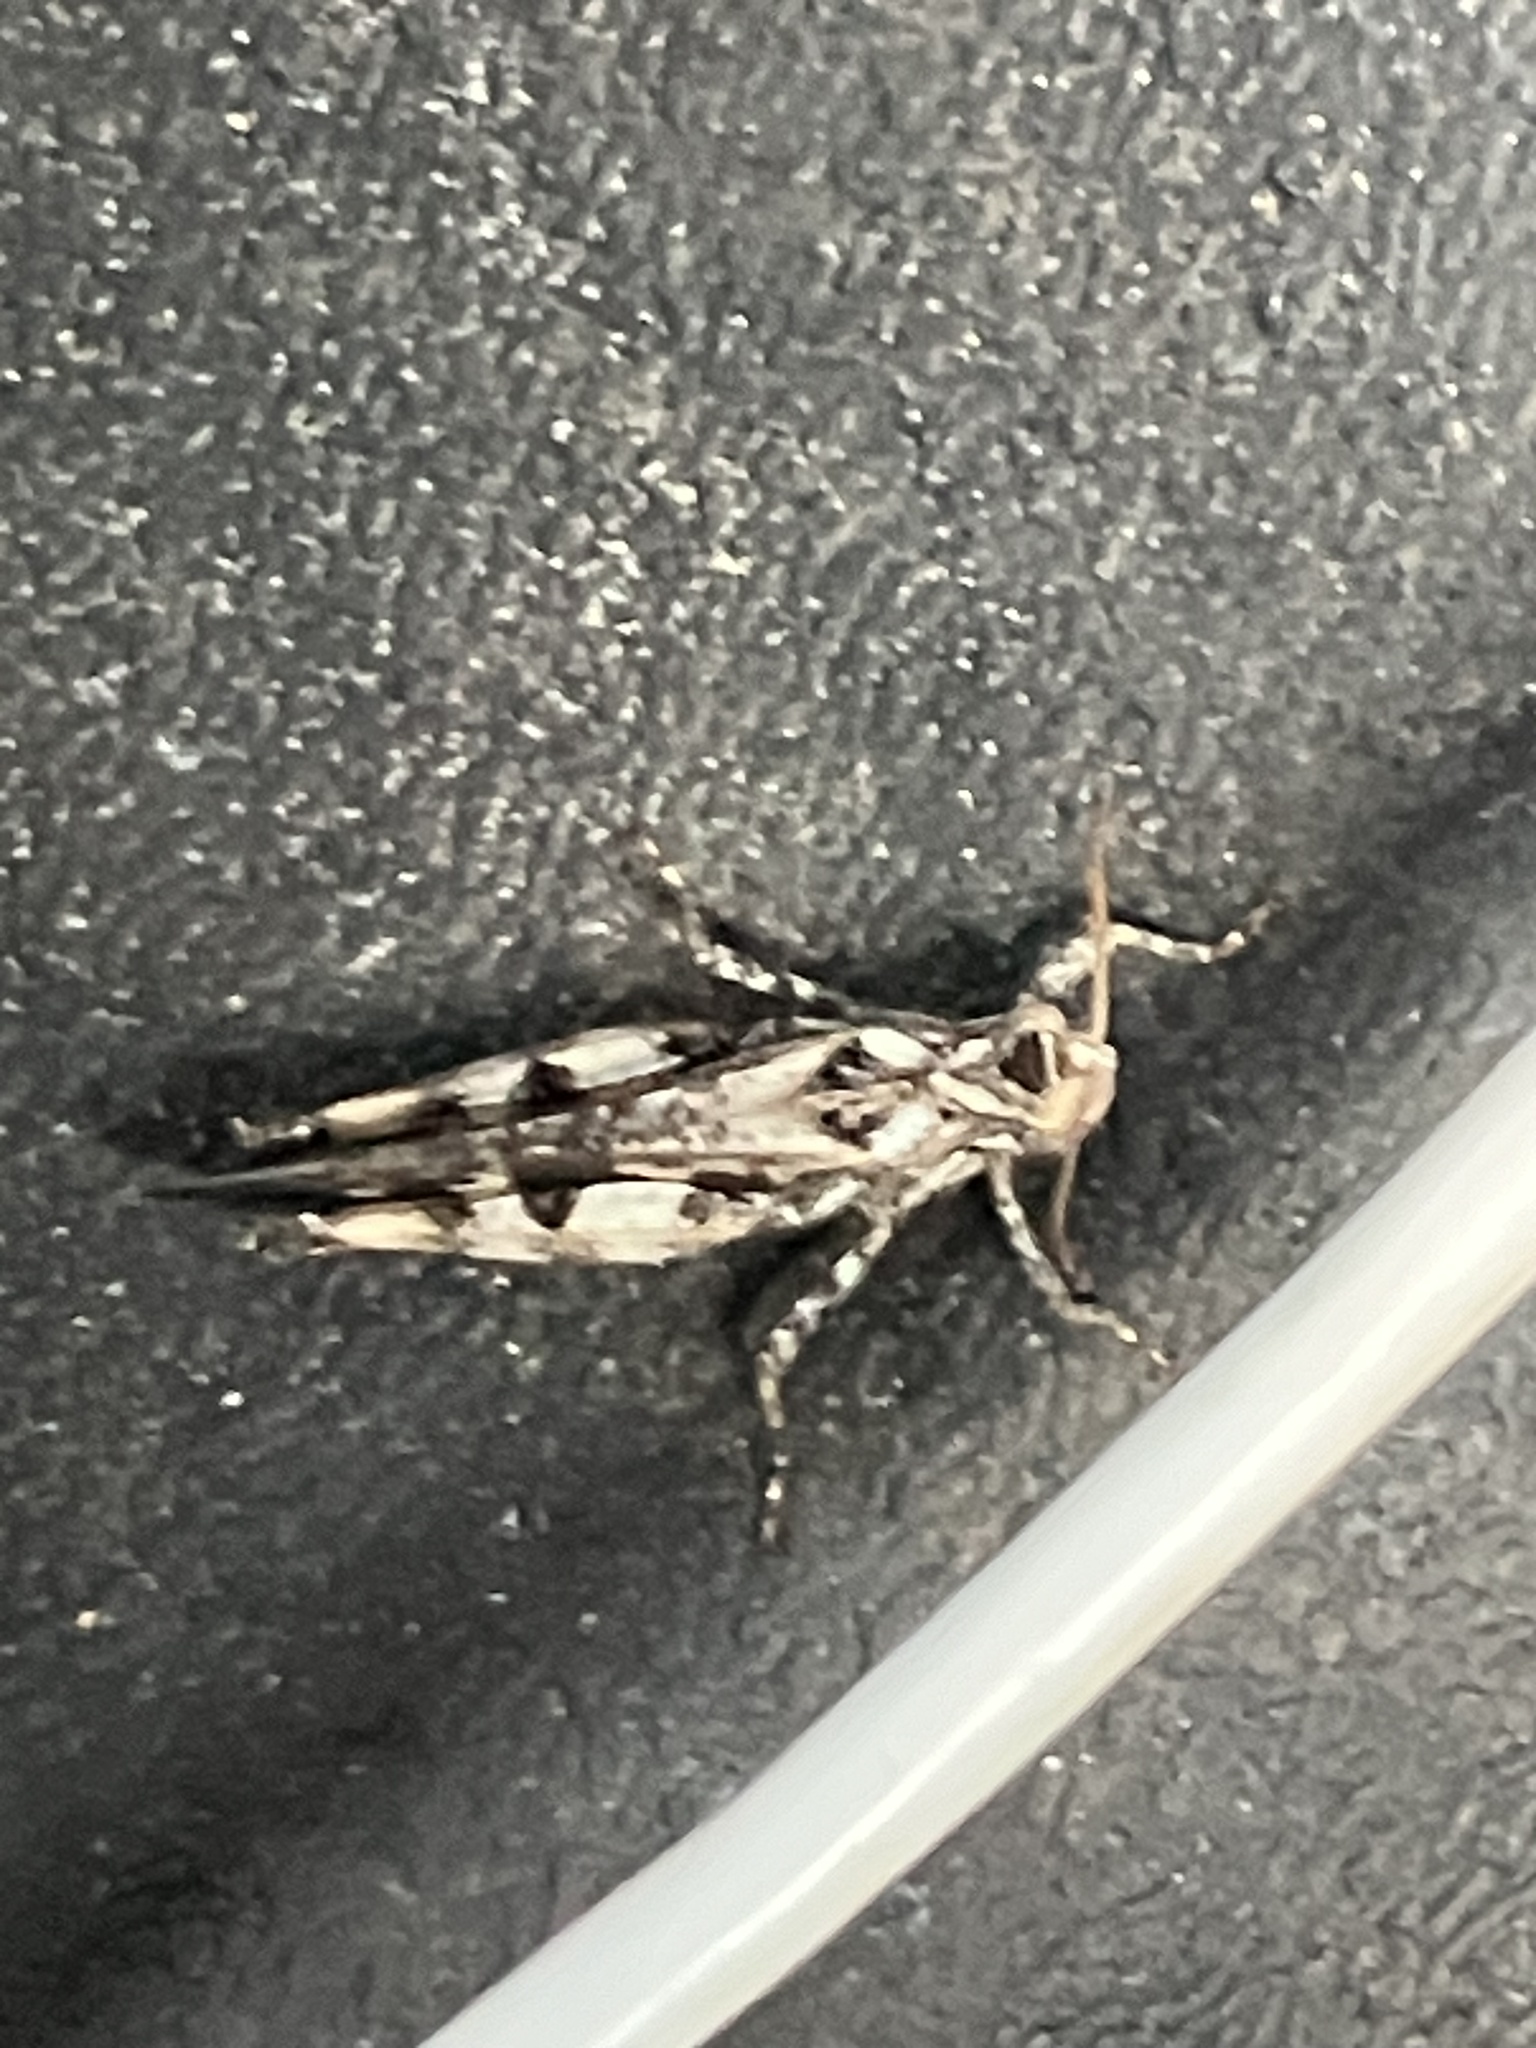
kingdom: Animalia
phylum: Arthropoda
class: Insecta
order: Orthoptera
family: Acrididae
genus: Chortophaga
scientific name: Chortophaga australior
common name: Southern green-striped grasshopper
